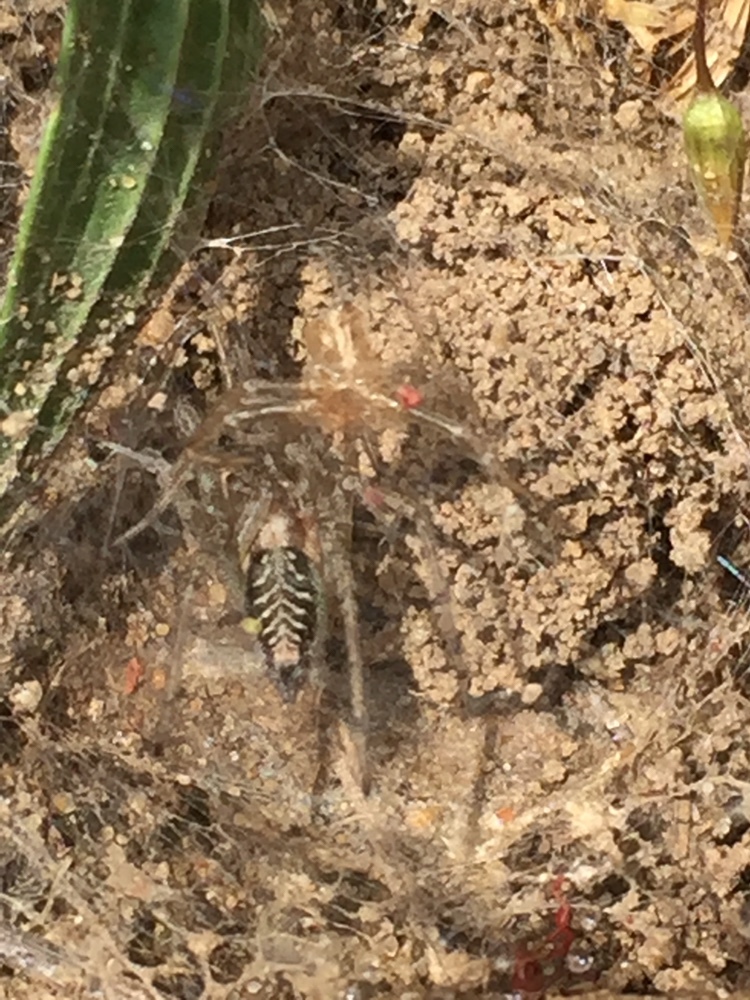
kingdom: Animalia
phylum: Arthropoda
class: Arachnida
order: Araneae
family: Agelenidae
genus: Agelena
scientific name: Agelena labyrinthica
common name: Labyrinth spider
